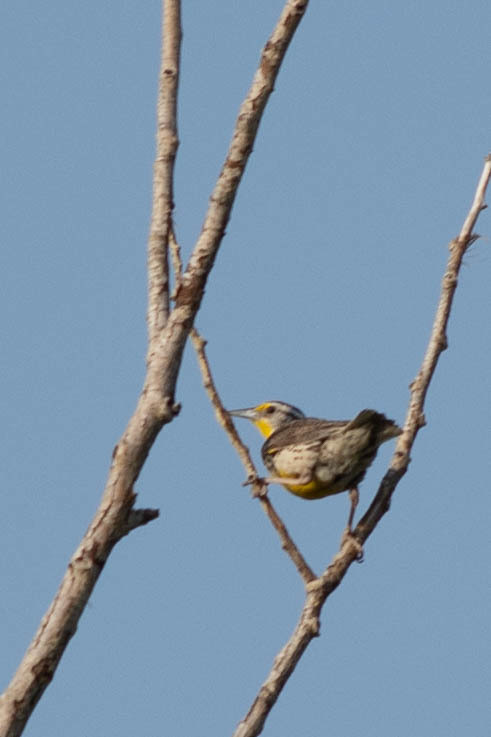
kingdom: Animalia
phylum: Chordata
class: Aves
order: Passeriformes
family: Icteridae
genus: Sturnella
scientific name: Sturnella neglecta
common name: Western meadowlark
